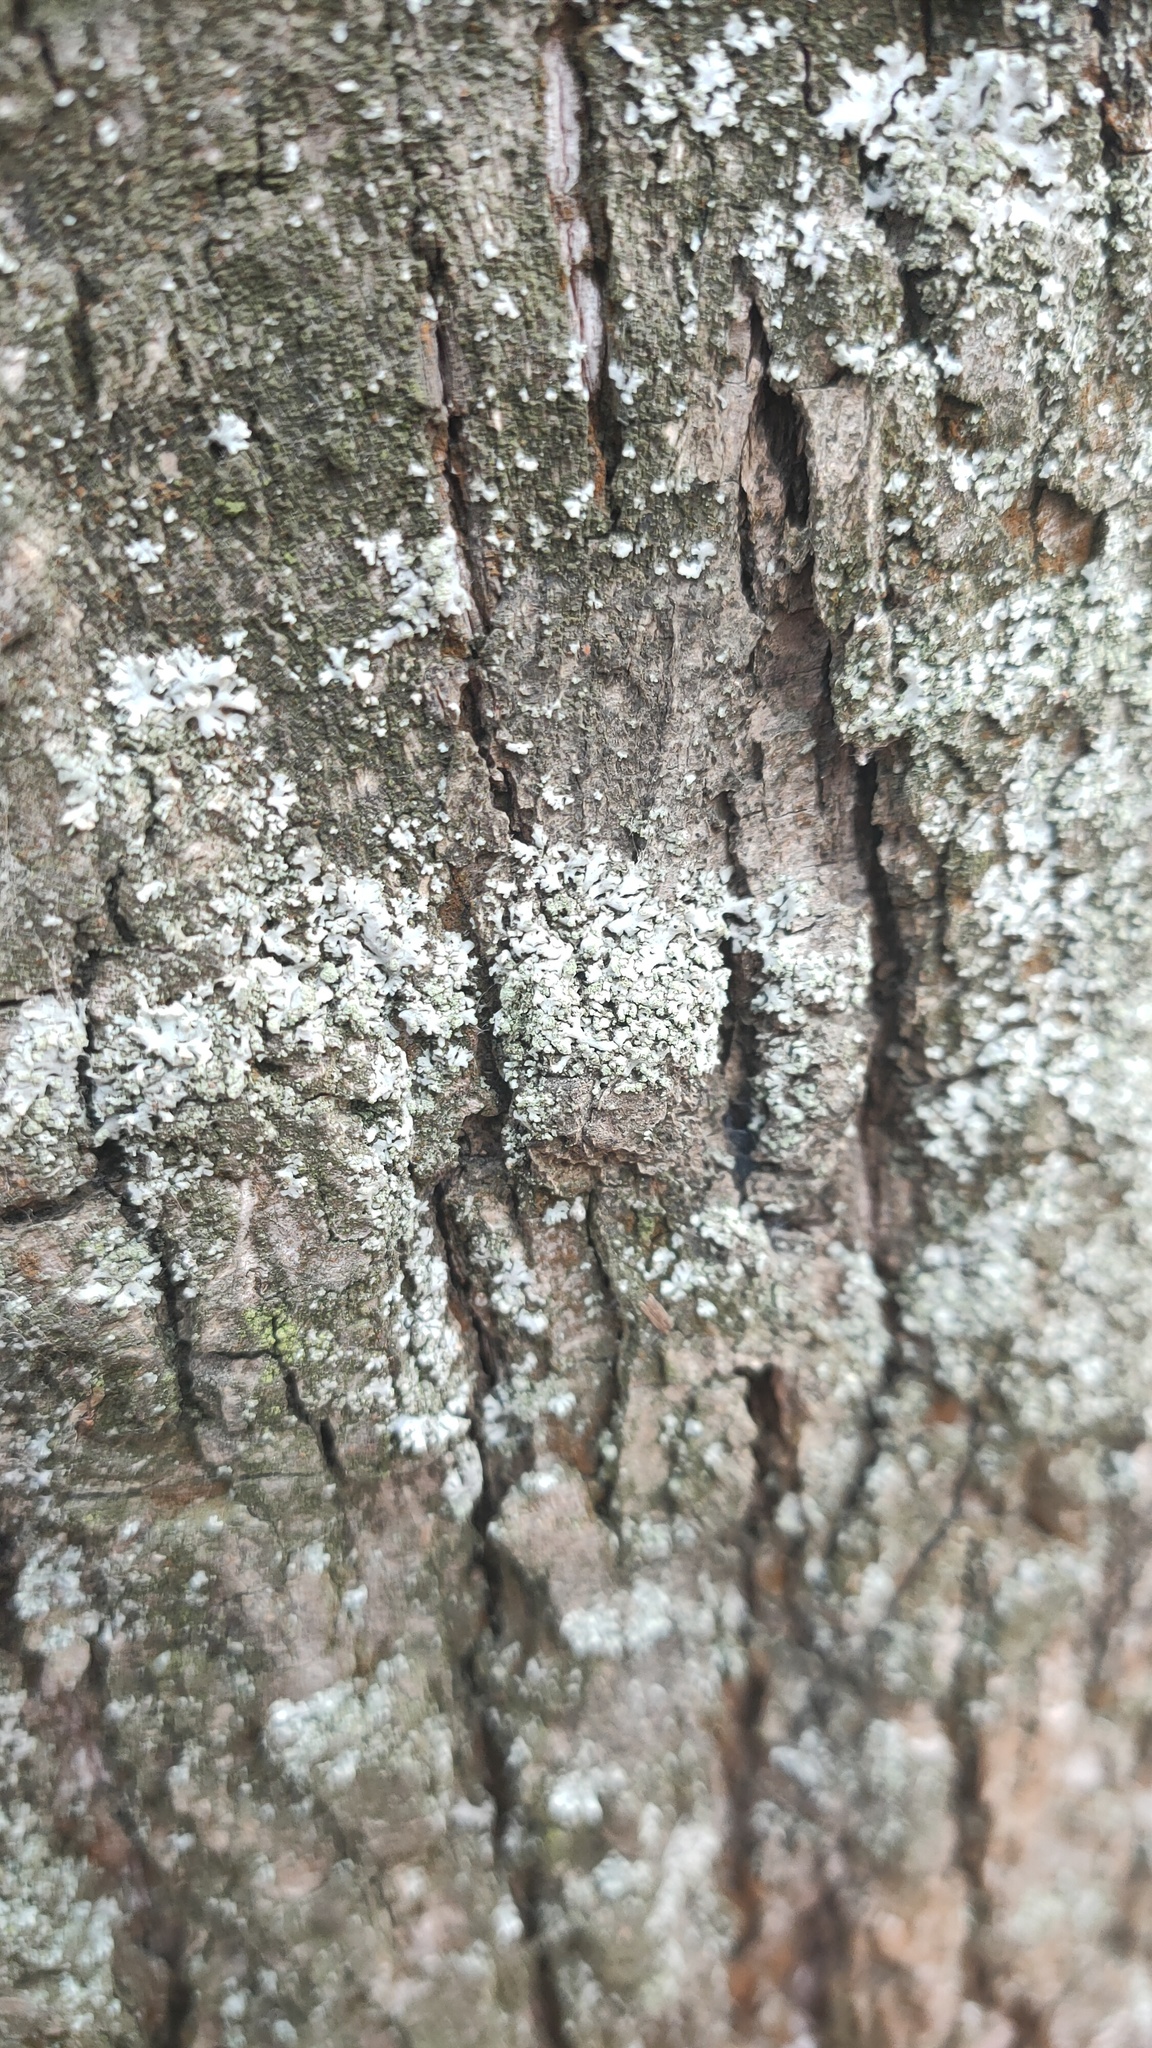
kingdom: Fungi
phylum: Ascomycota
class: Lecanoromycetes
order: Caliciales
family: Physciaceae
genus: Phaeophyscia
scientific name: Phaeophyscia orbicularis
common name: Mealy shadow lichen
